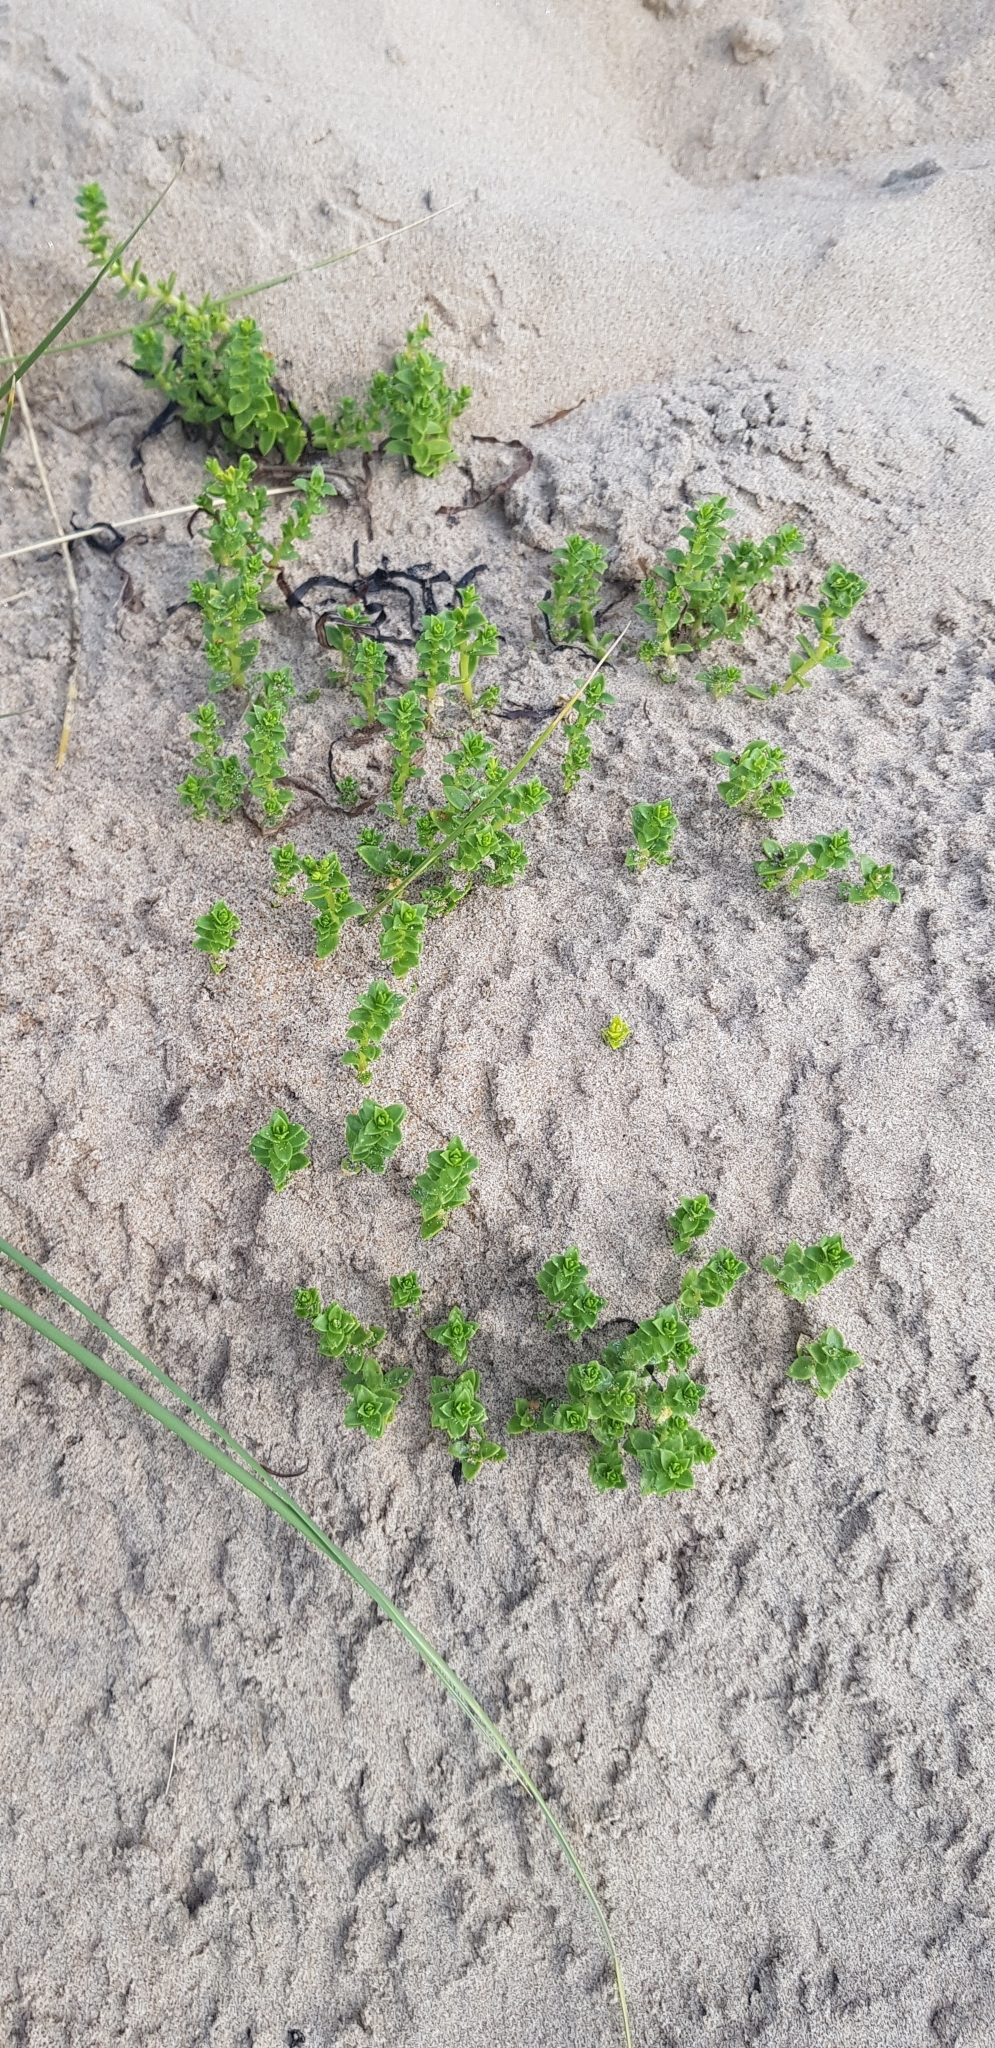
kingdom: Plantae
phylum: Tracheophyta
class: Magnoliopsida
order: Caryophyllales
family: Caryophyllaceae
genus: Honckenya
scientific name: Honckenya peploides
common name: Sea sandwort
